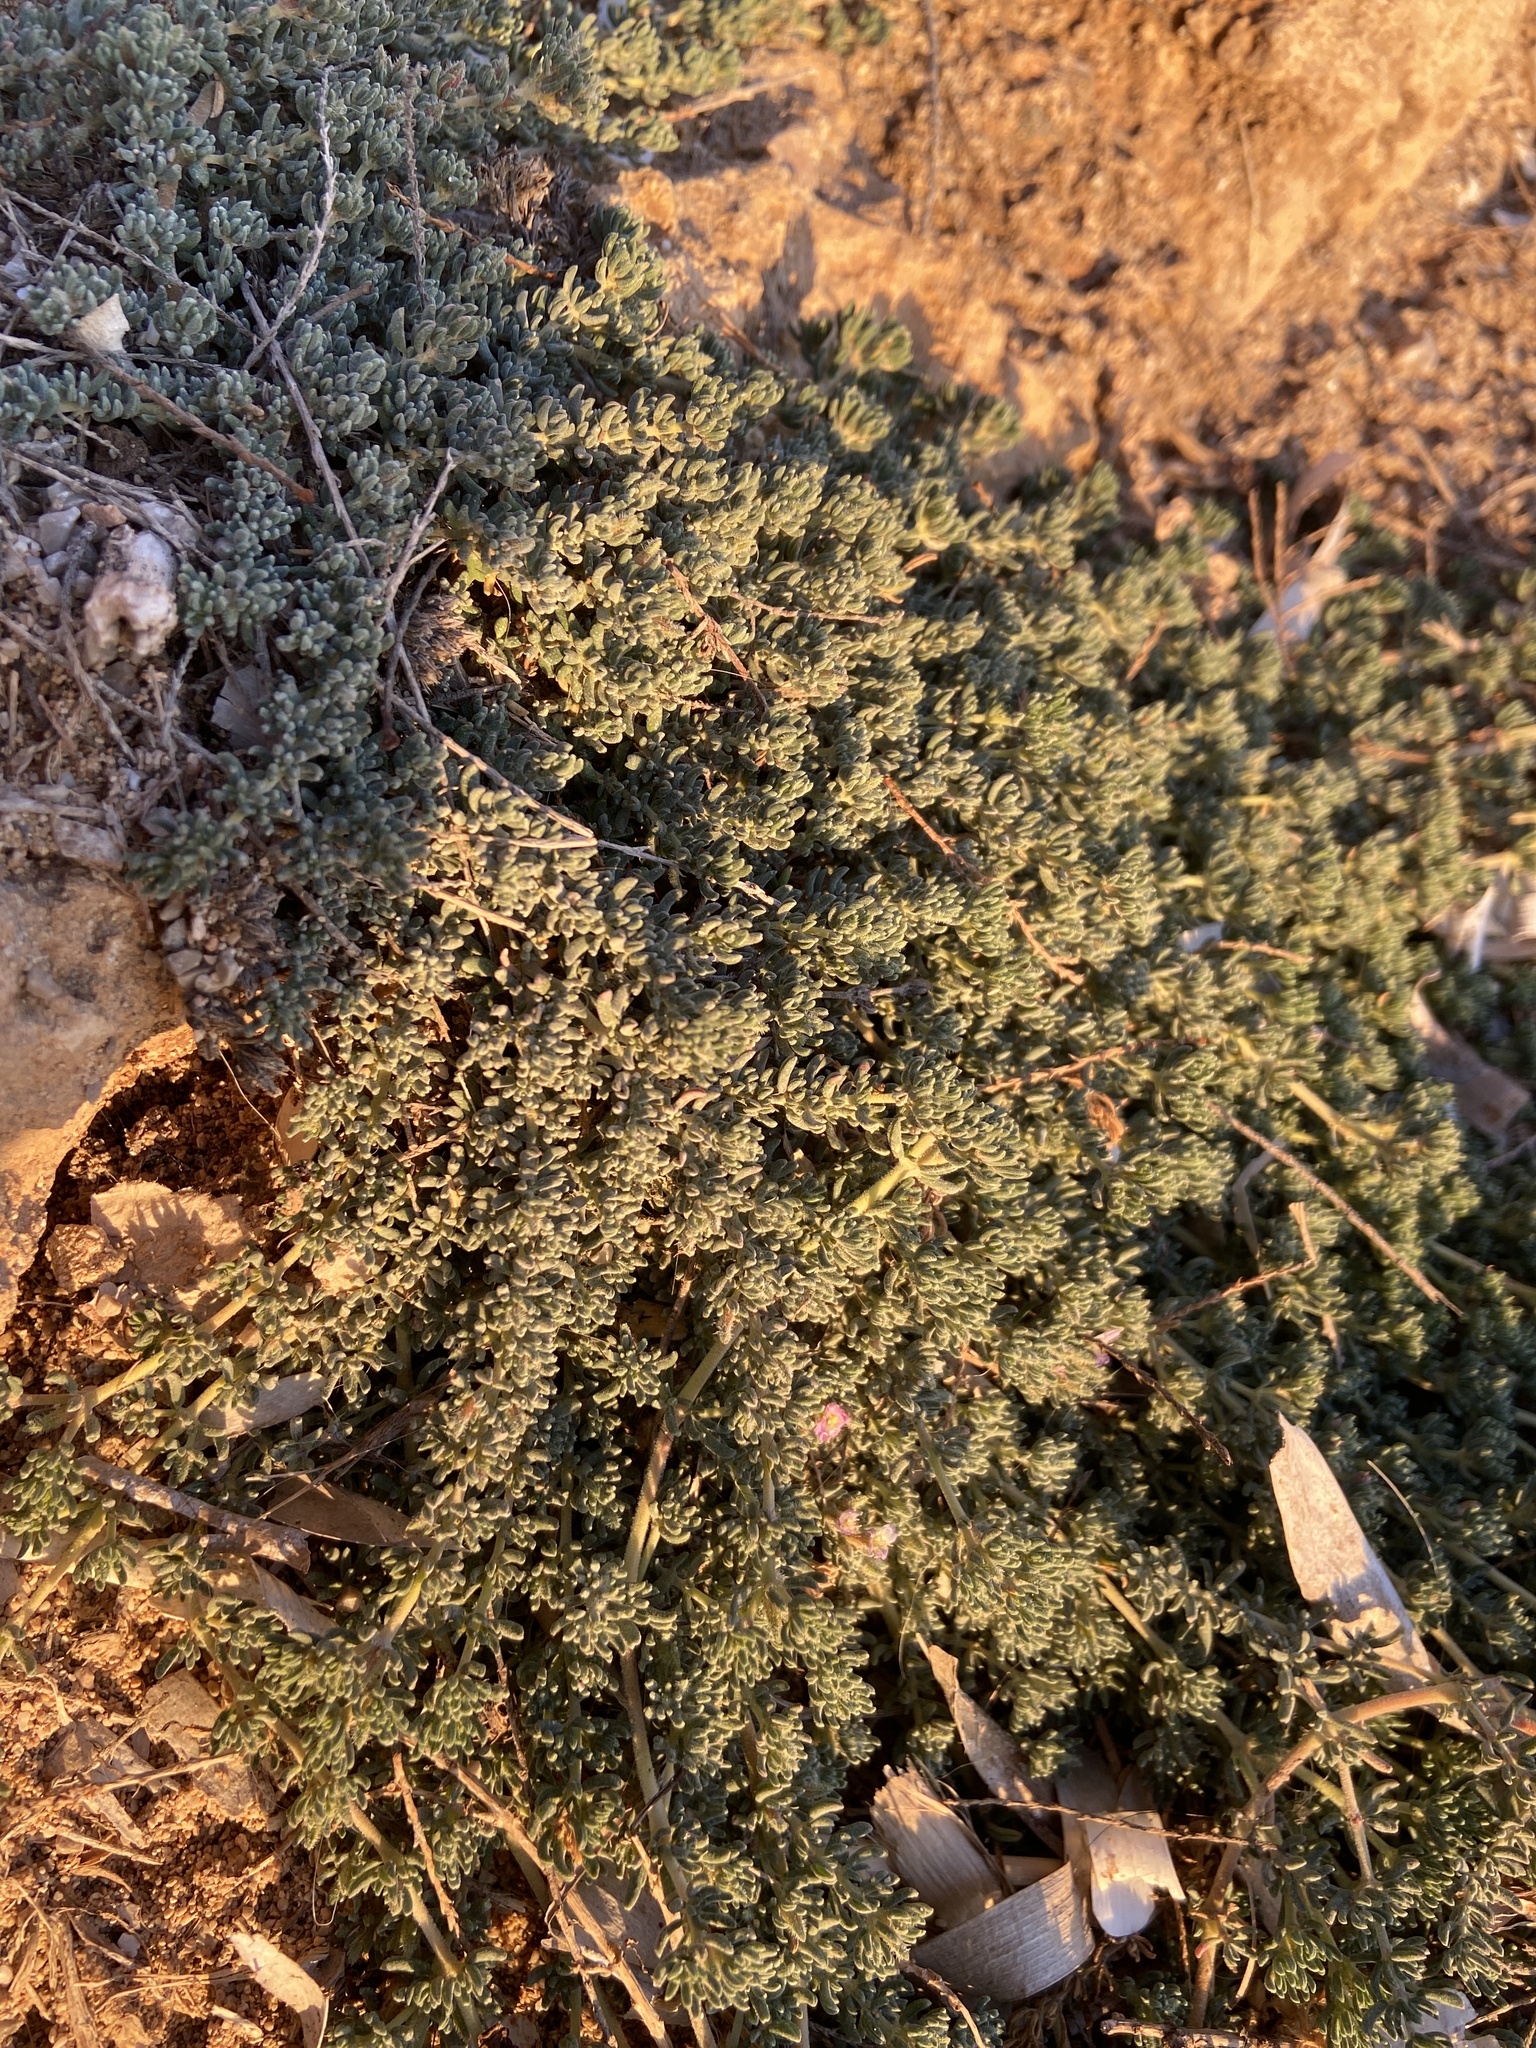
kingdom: Plantae
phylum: Tracheophyta
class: Magnoliopsida
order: Caryophyllales
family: Frankeniaceae
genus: Frankenia
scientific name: Frankenia hirsuta
